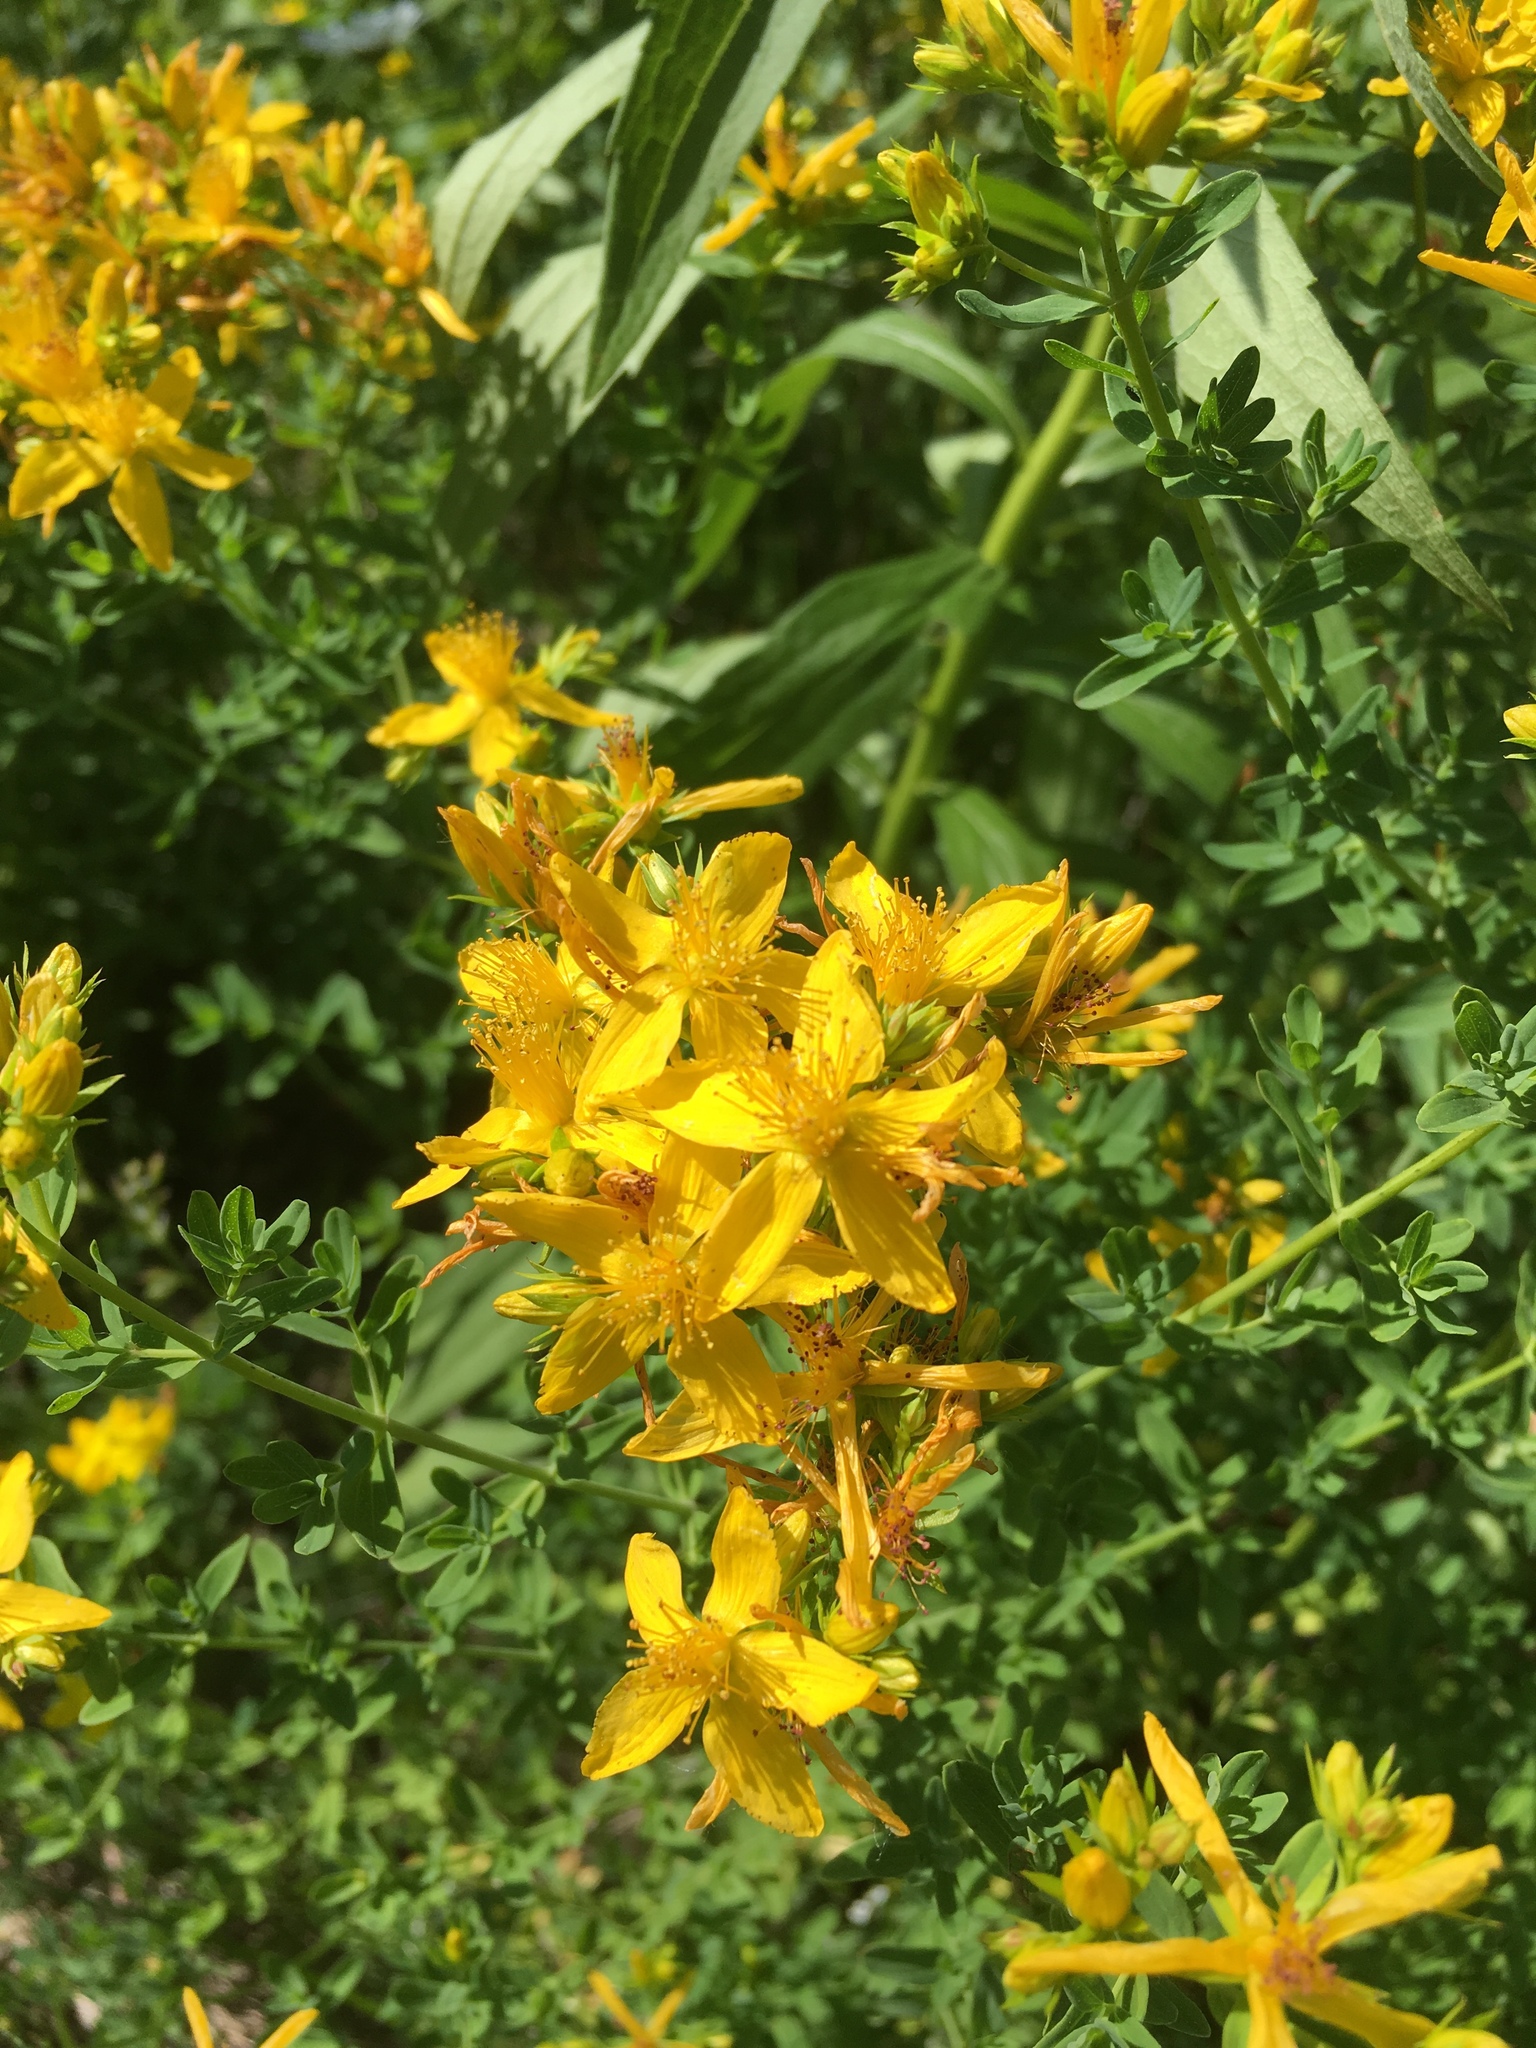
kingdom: Plantae
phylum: Tracheophyta
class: Magnoliopsida
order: Malpighiales
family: Hypericaceae
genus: Hypericum
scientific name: Hypericum perforatum
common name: Common st. johnswort
